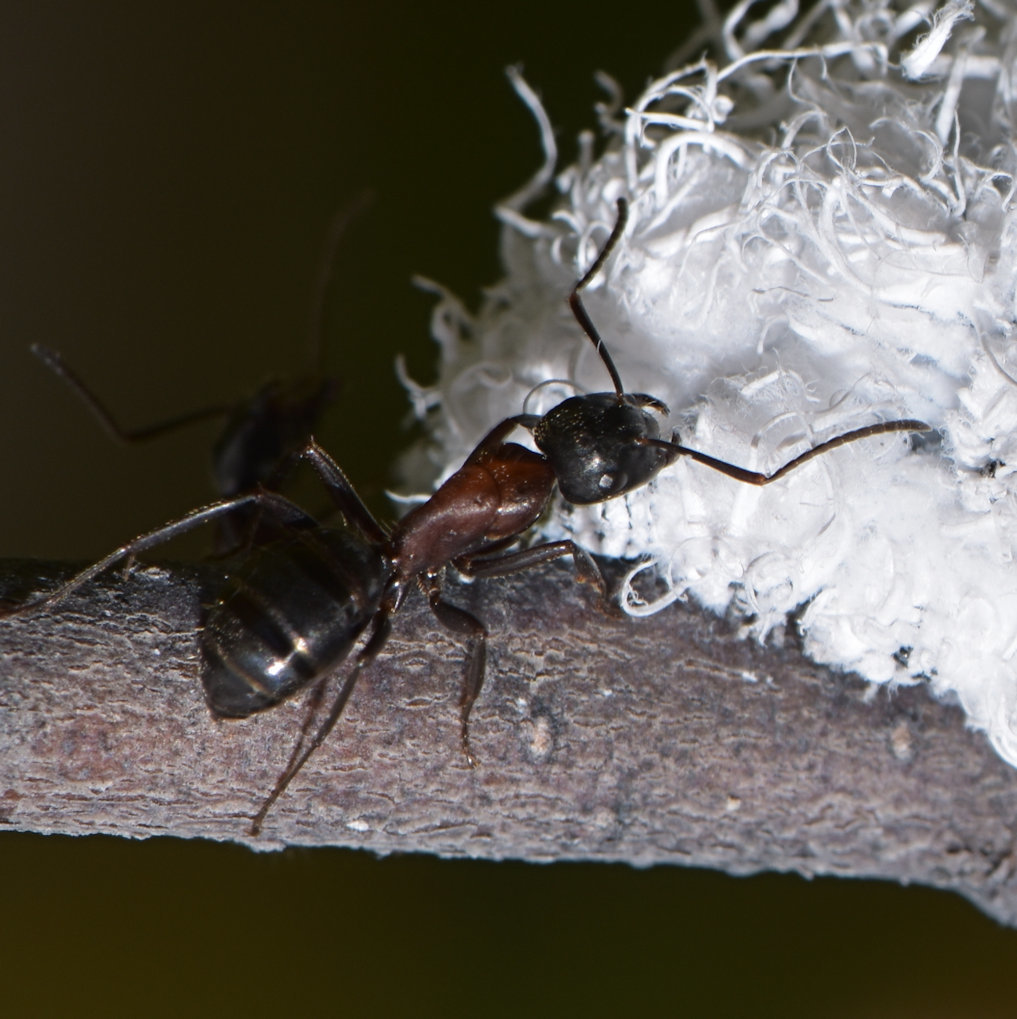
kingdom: Animalia
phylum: Arthropoda
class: Insecta
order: Hymenoptera
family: Formicidae
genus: Camponotus
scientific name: Camponotus novaeboracensis
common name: New york carpenter ant
